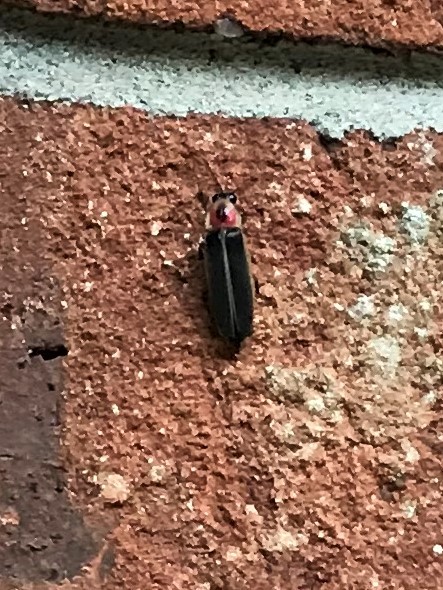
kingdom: Animalia
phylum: Arthropoda
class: Insecta
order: Coleoptera
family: Lampyridae
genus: Photinus
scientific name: Photinus pyralis
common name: Big dipper firefly
